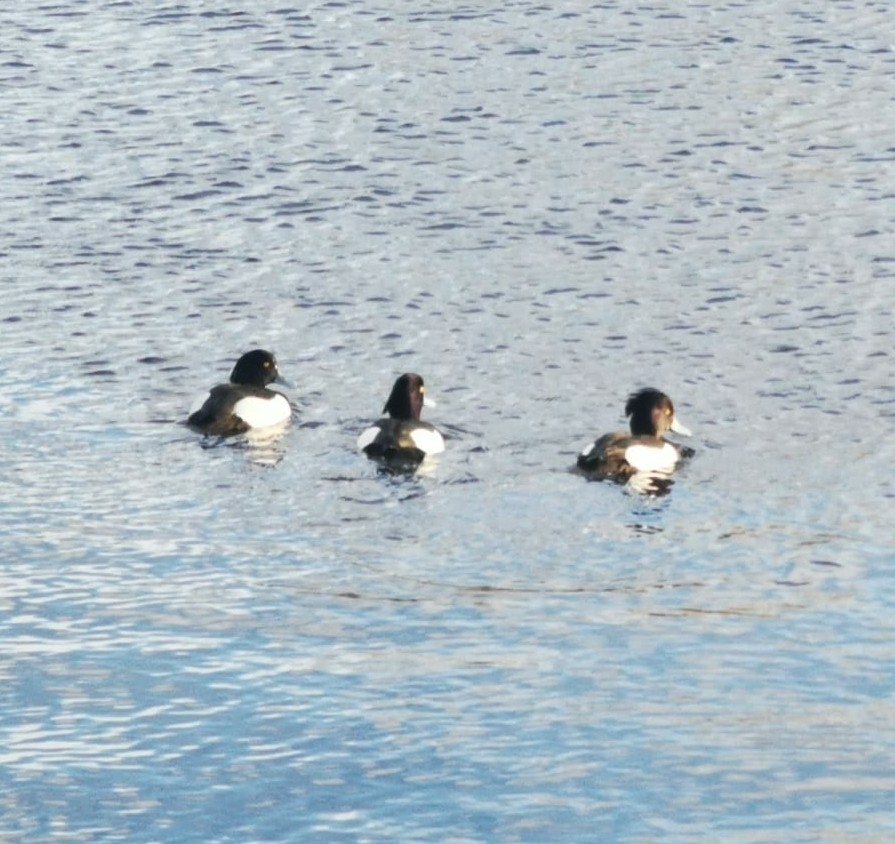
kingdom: Animalia
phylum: Chordata
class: Aves
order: Anseriformes
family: Anatidae
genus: Aythya
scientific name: Aythya fuligula
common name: Tufted duck
